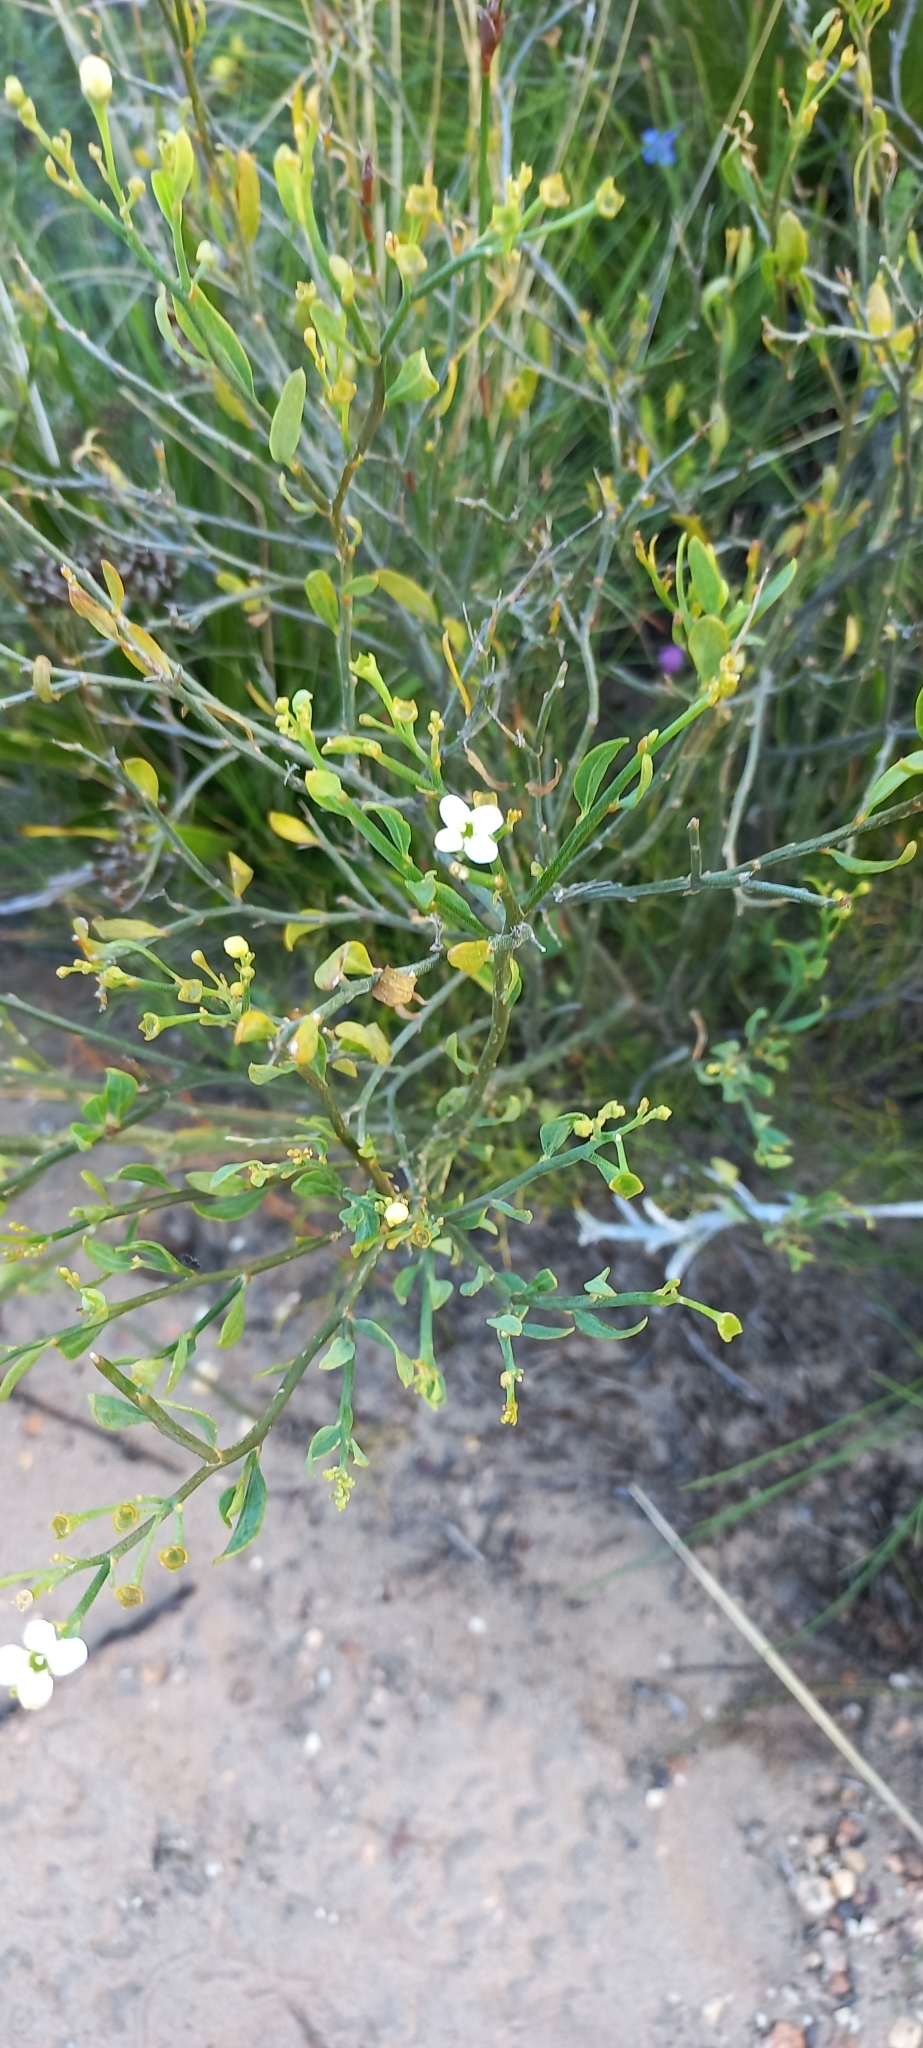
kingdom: Plantae
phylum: Tracheophyta
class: Magnoliopsida
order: Solanales
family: Montiniaceae
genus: Montinia
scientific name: Montinia caryophyllacea
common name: Wild clove-bush
